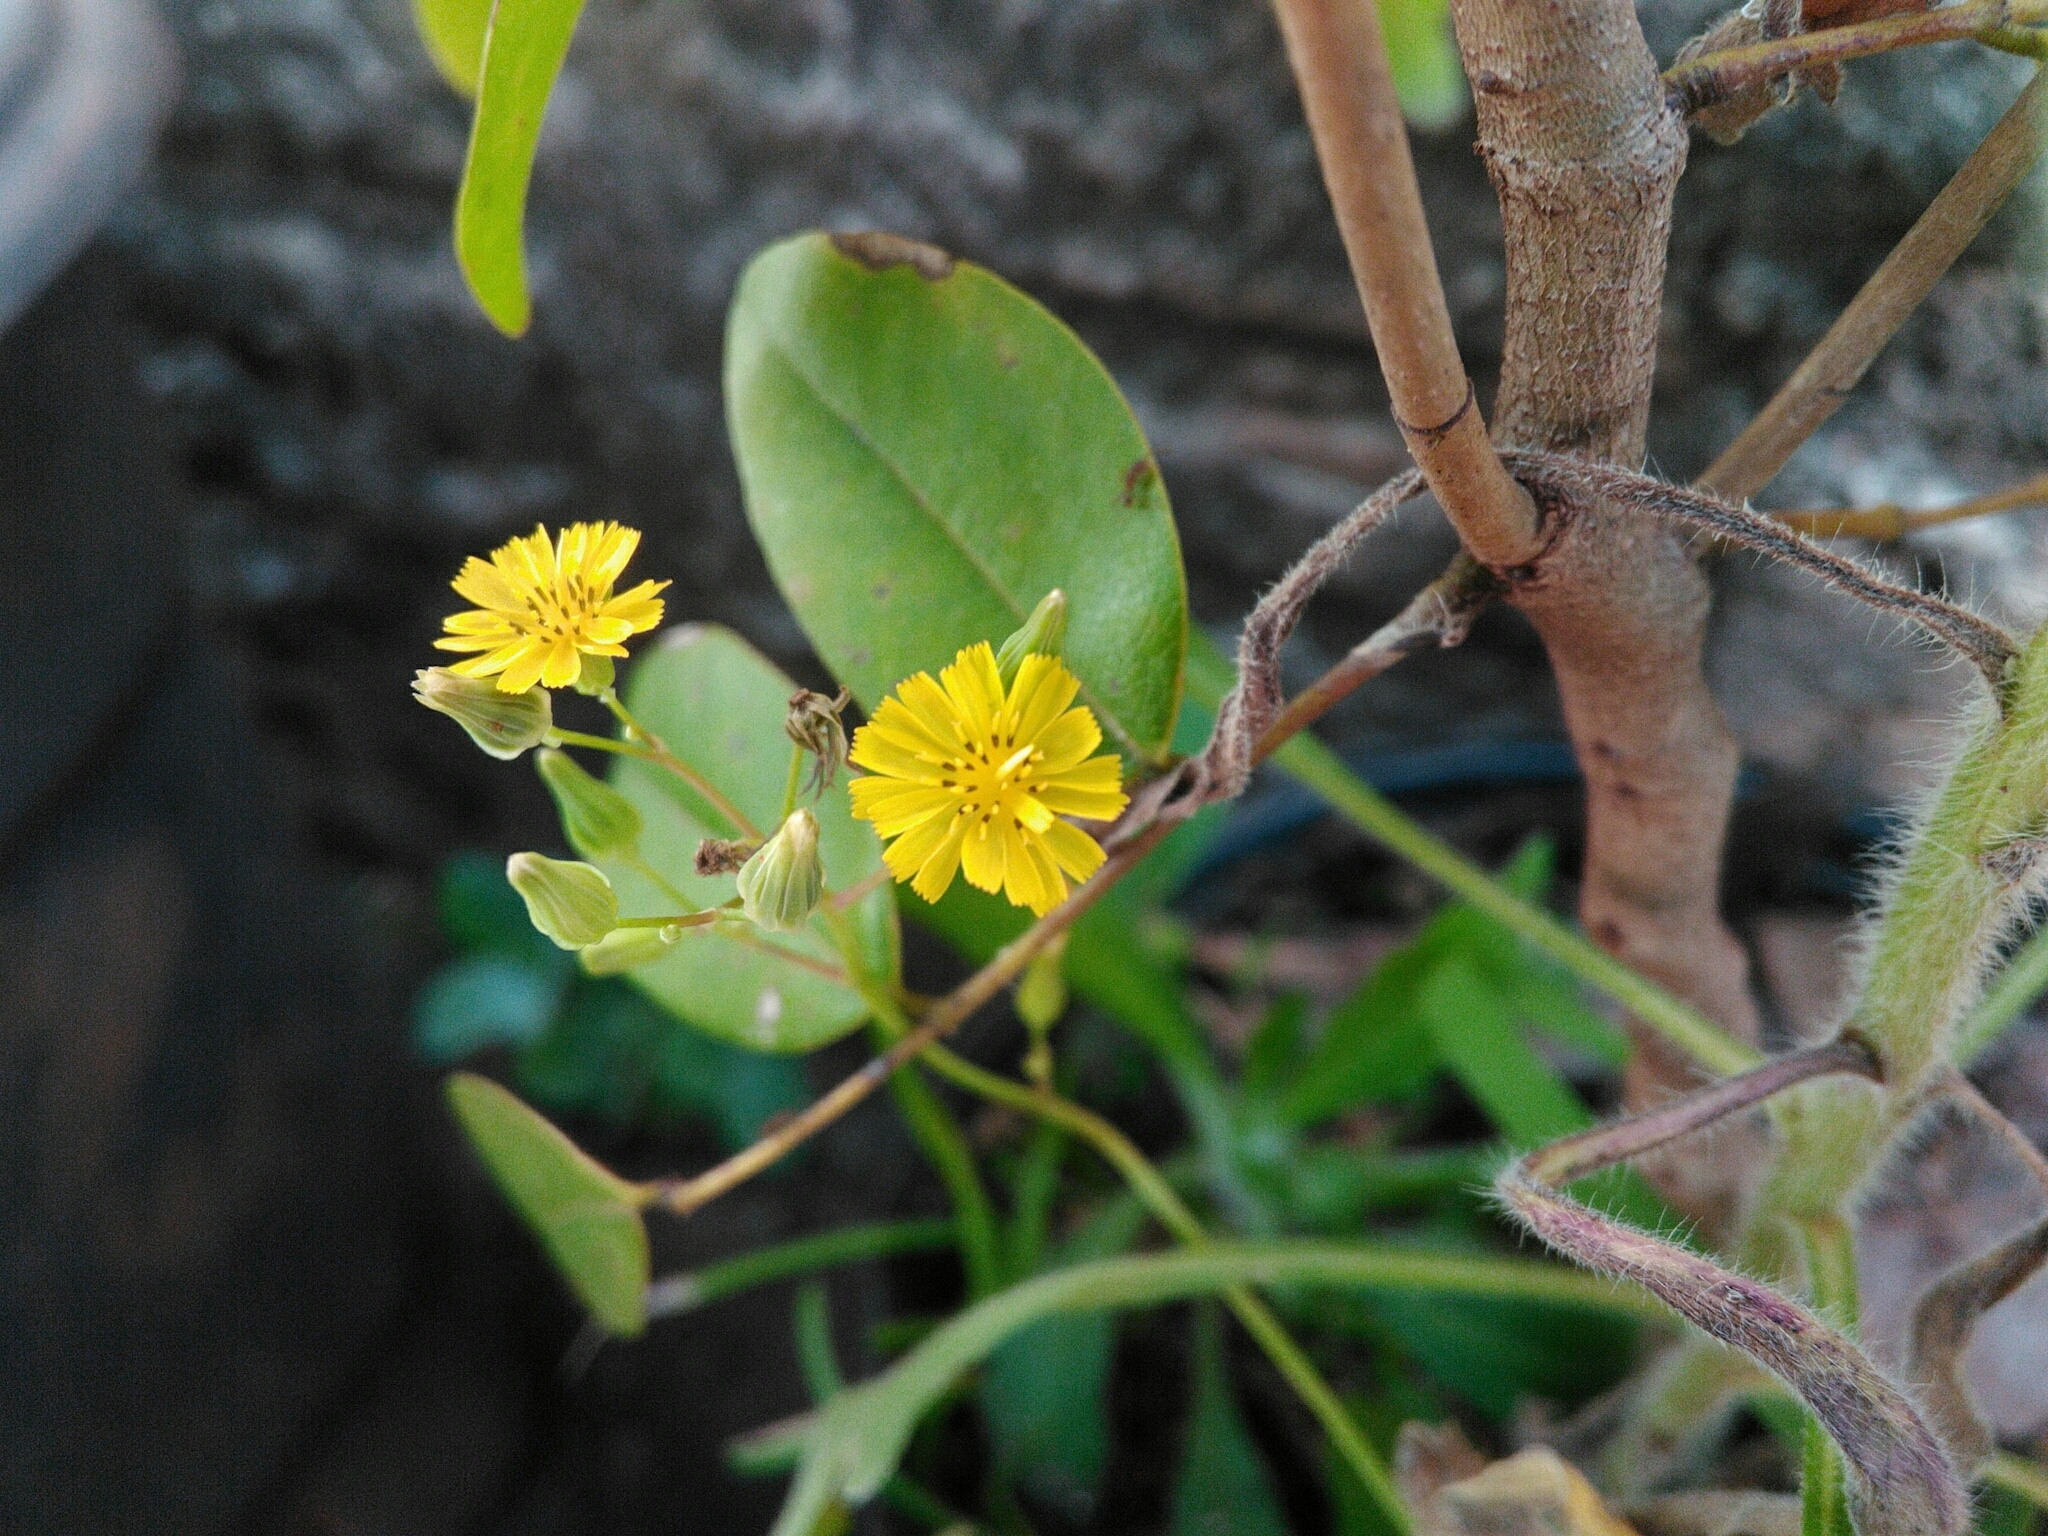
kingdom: Plantae
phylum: Tracheophyta
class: Magnoliopsida
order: Asterales
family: Asteraceae
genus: Youngia
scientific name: Youngia japonica
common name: Oriental false hawksbeard
